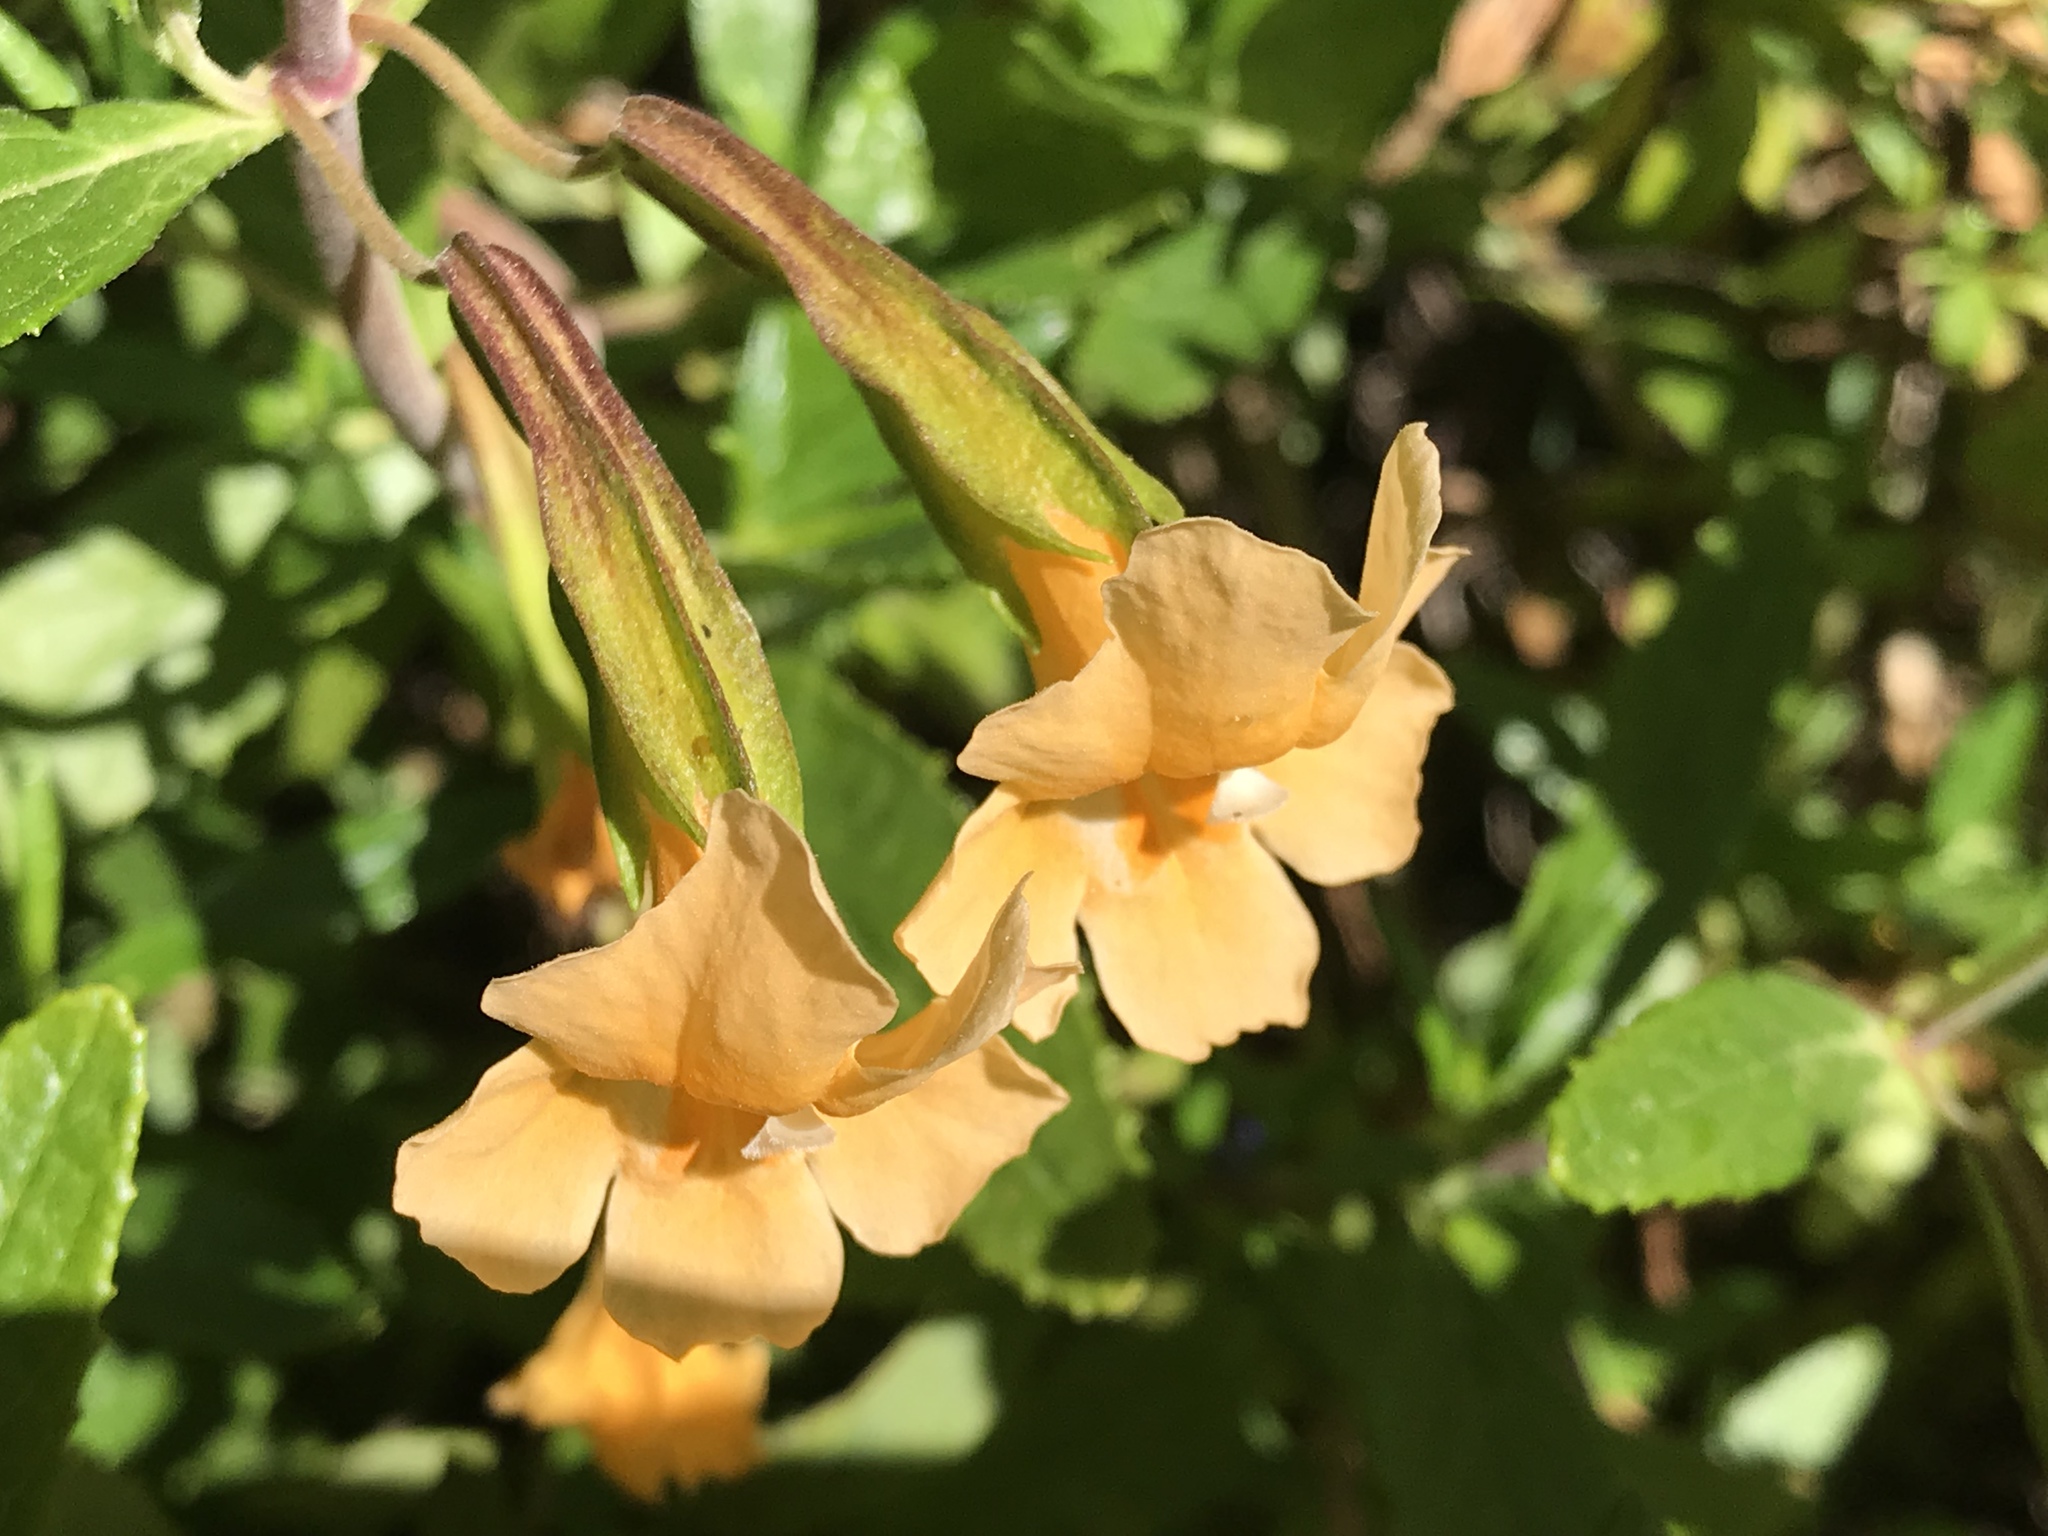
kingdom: Plantae
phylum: Tracheophyta
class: Magnoliopsida
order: Lamiales
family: Phrymaceae
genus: Diplacus
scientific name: Diplacus aurantiacus
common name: Bush monkey-flower
